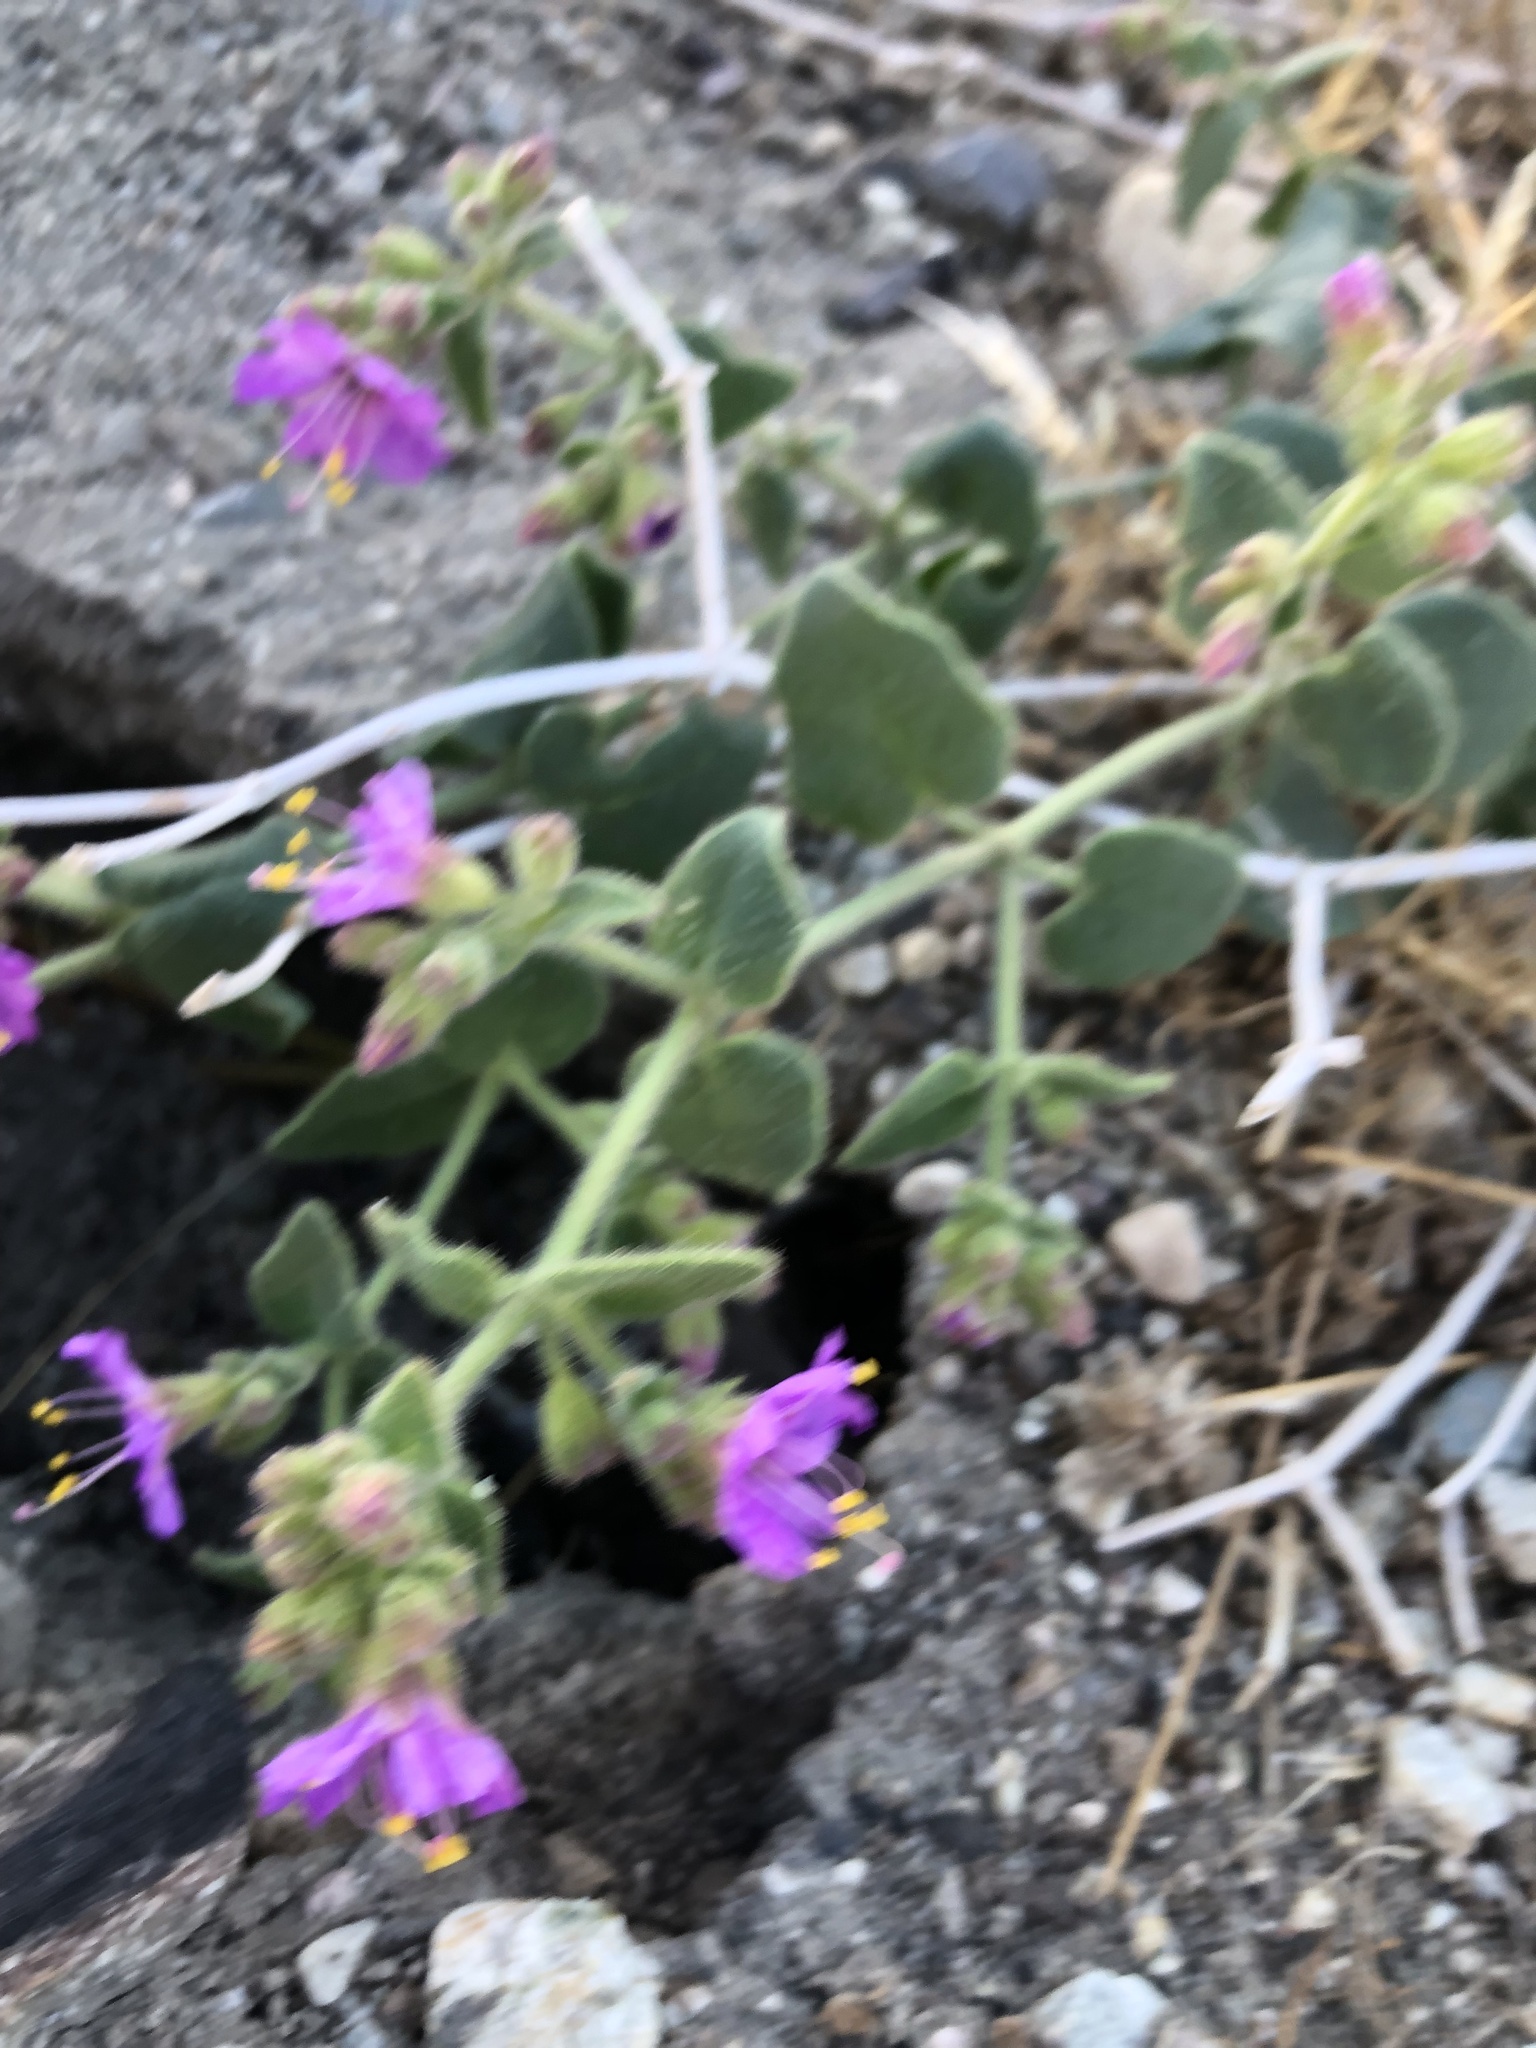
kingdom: Plantae
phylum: Tracheophyta
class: Magnoliopsida
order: Caryophyllales
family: Nyctaginaceae
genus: Mirabilis
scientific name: Mirabilis laevis
